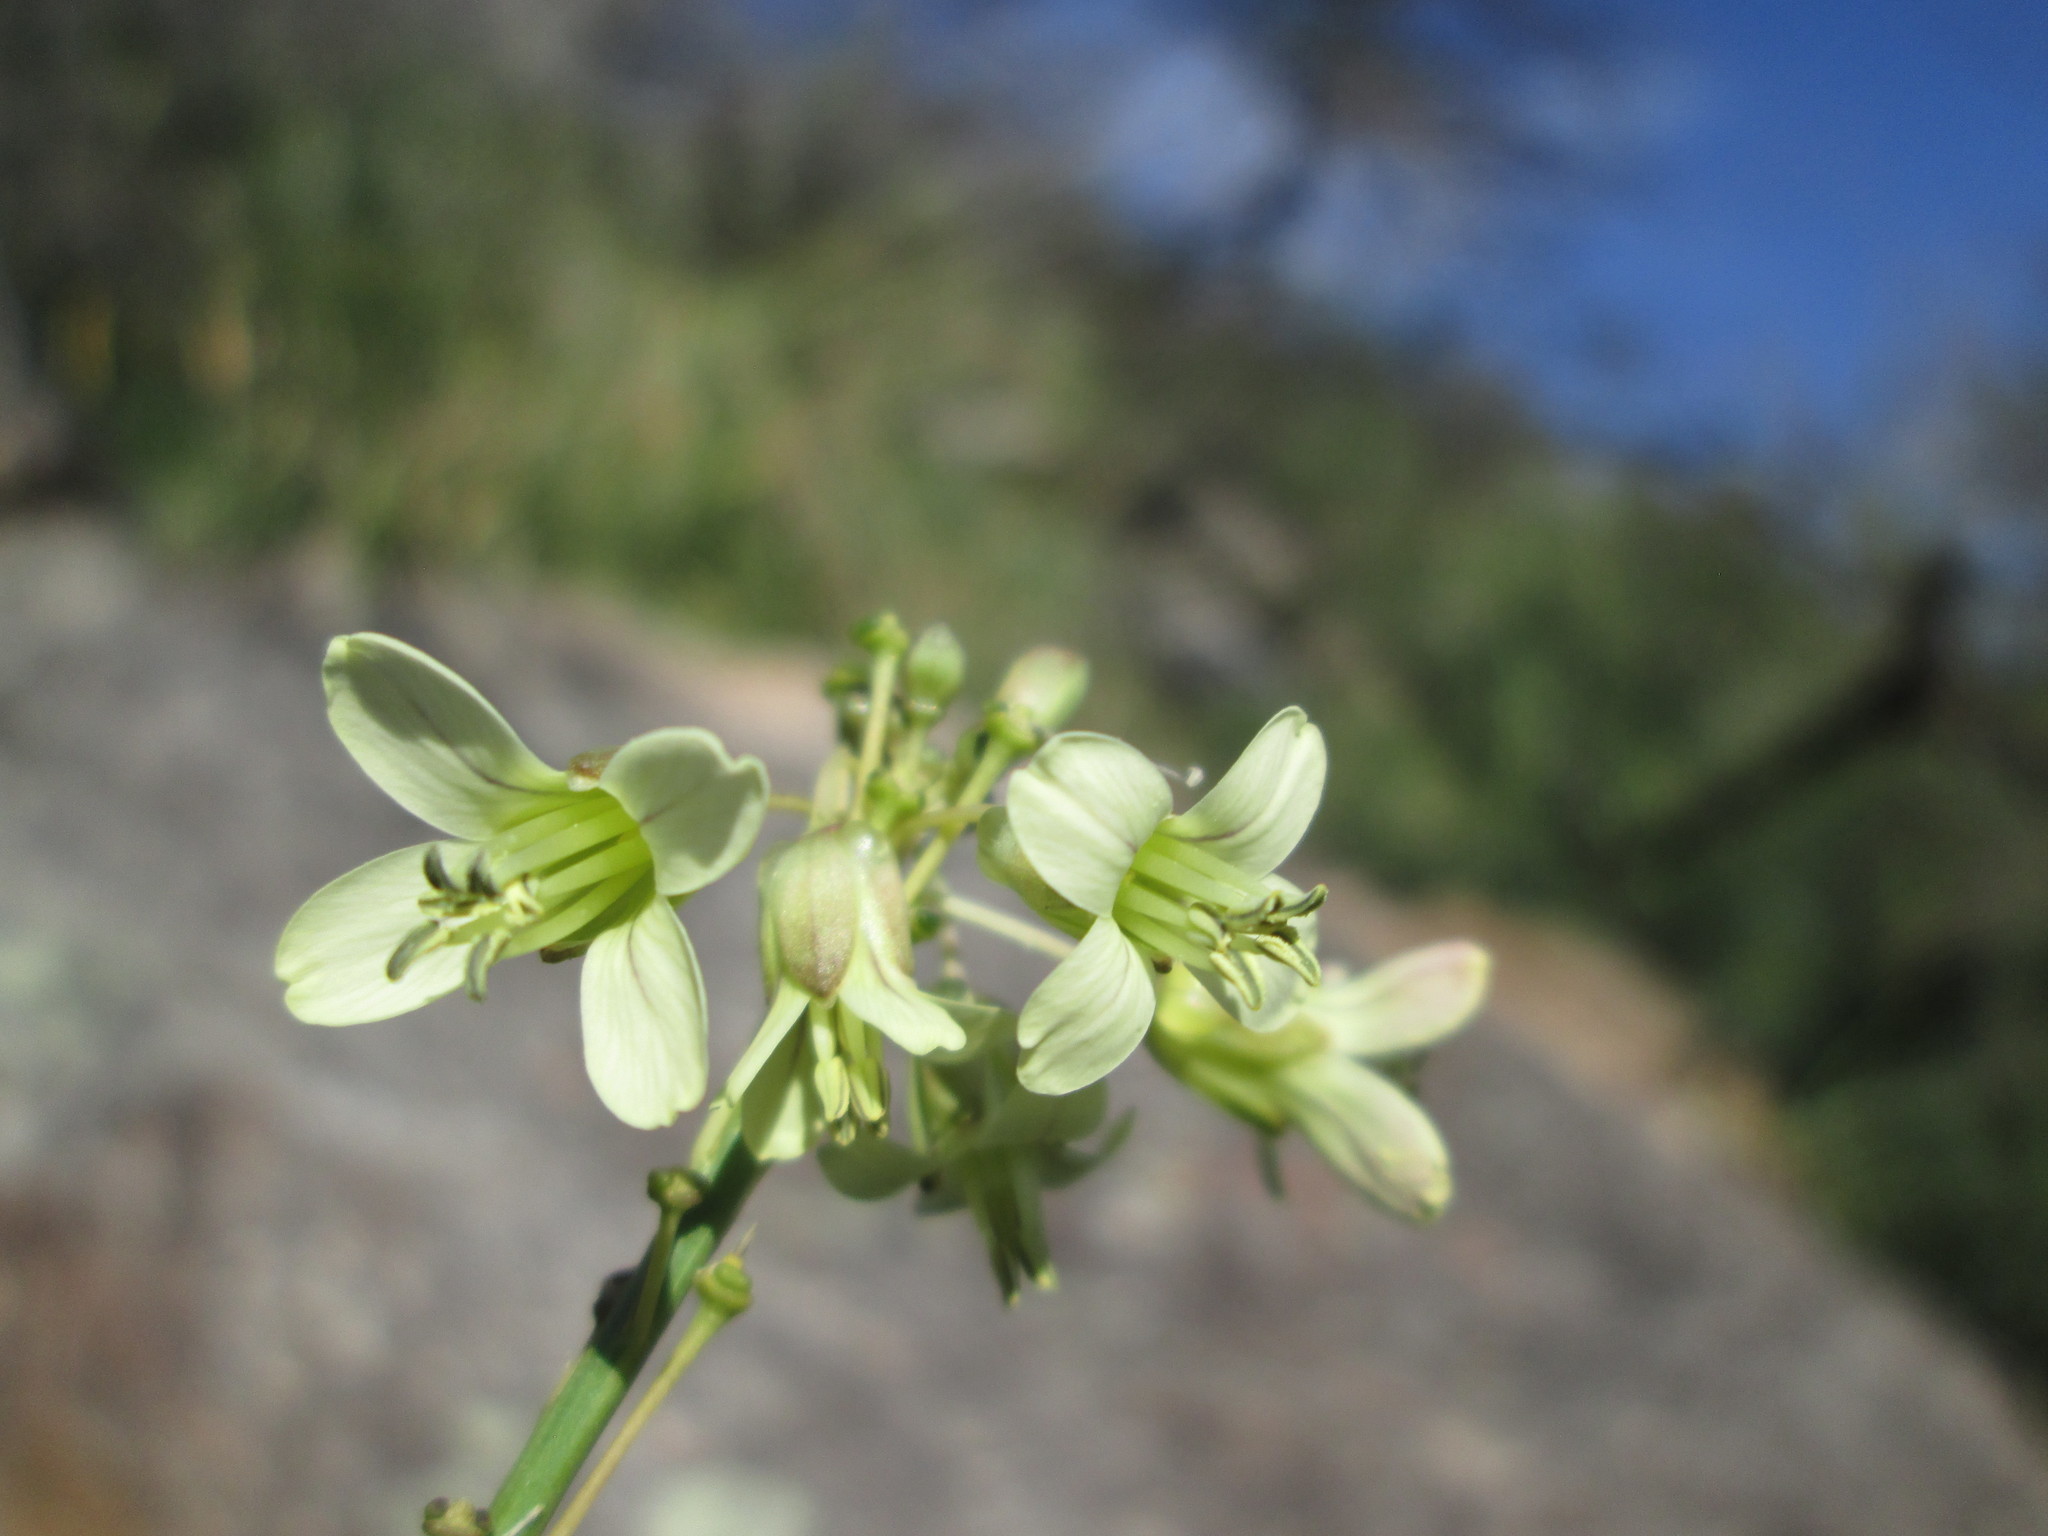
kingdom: Plantae
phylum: Tracheophyta
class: Magnoliopsida
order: Brassicales
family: Brassicaceae
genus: Heliophila
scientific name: Heliophila elongata
